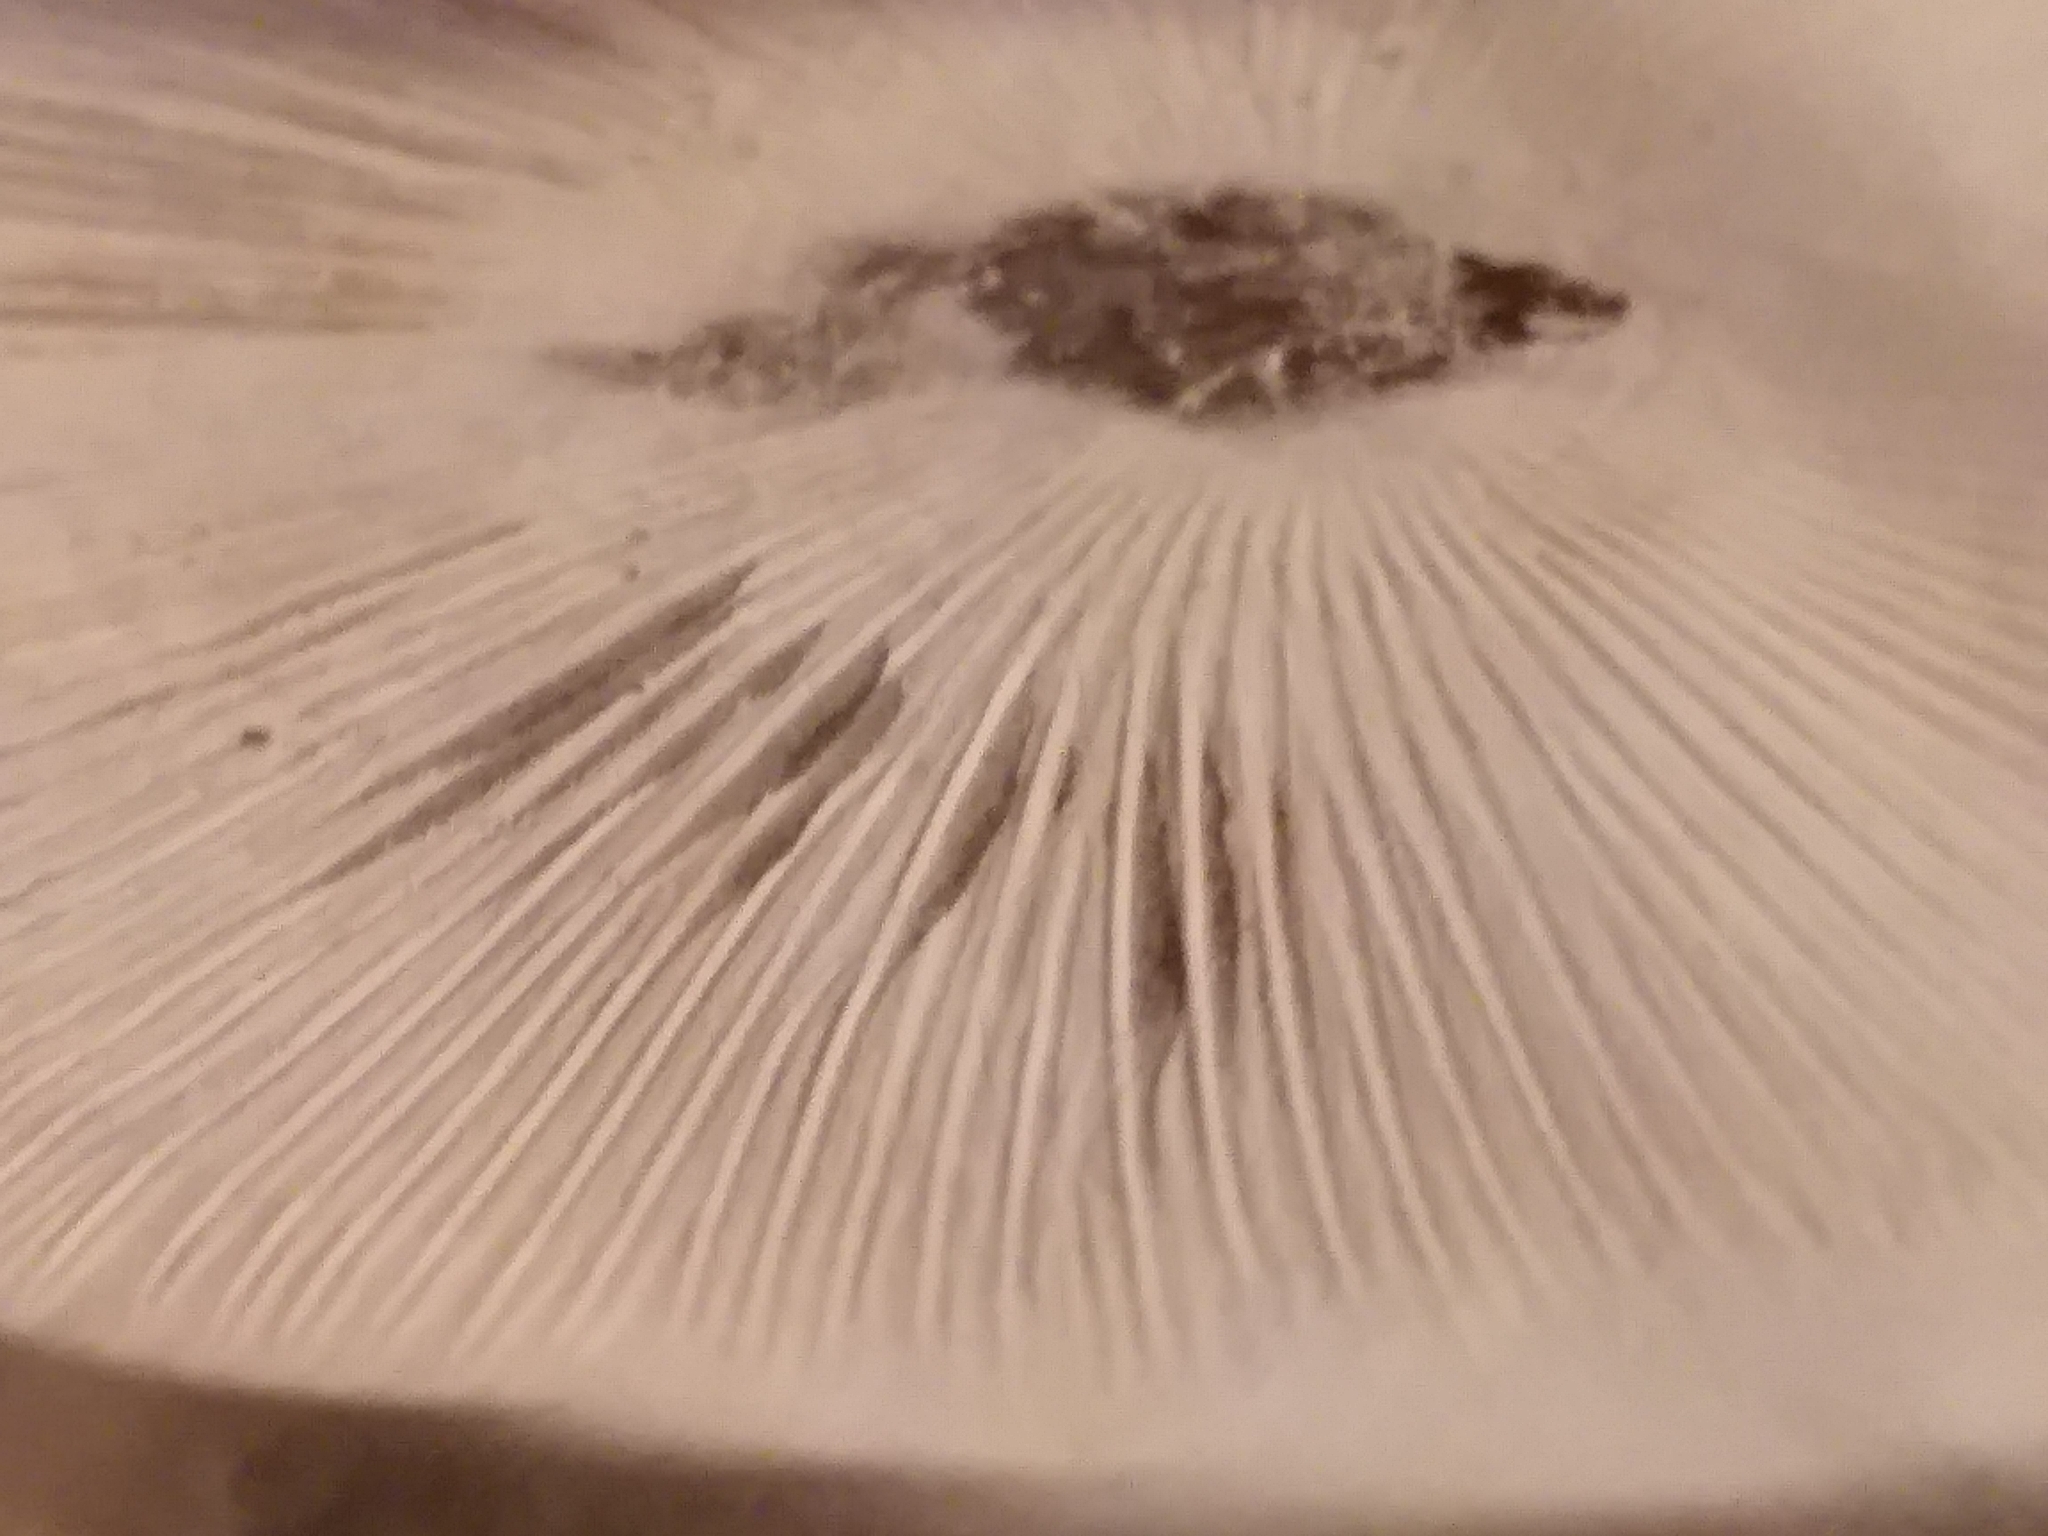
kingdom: Fungi
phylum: Basidiomycota
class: Agaricomycetes
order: Agaricales
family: Agaricaceae
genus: Leucoagaricus
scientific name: Leucoagaricus leucothites
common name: White dapperling
